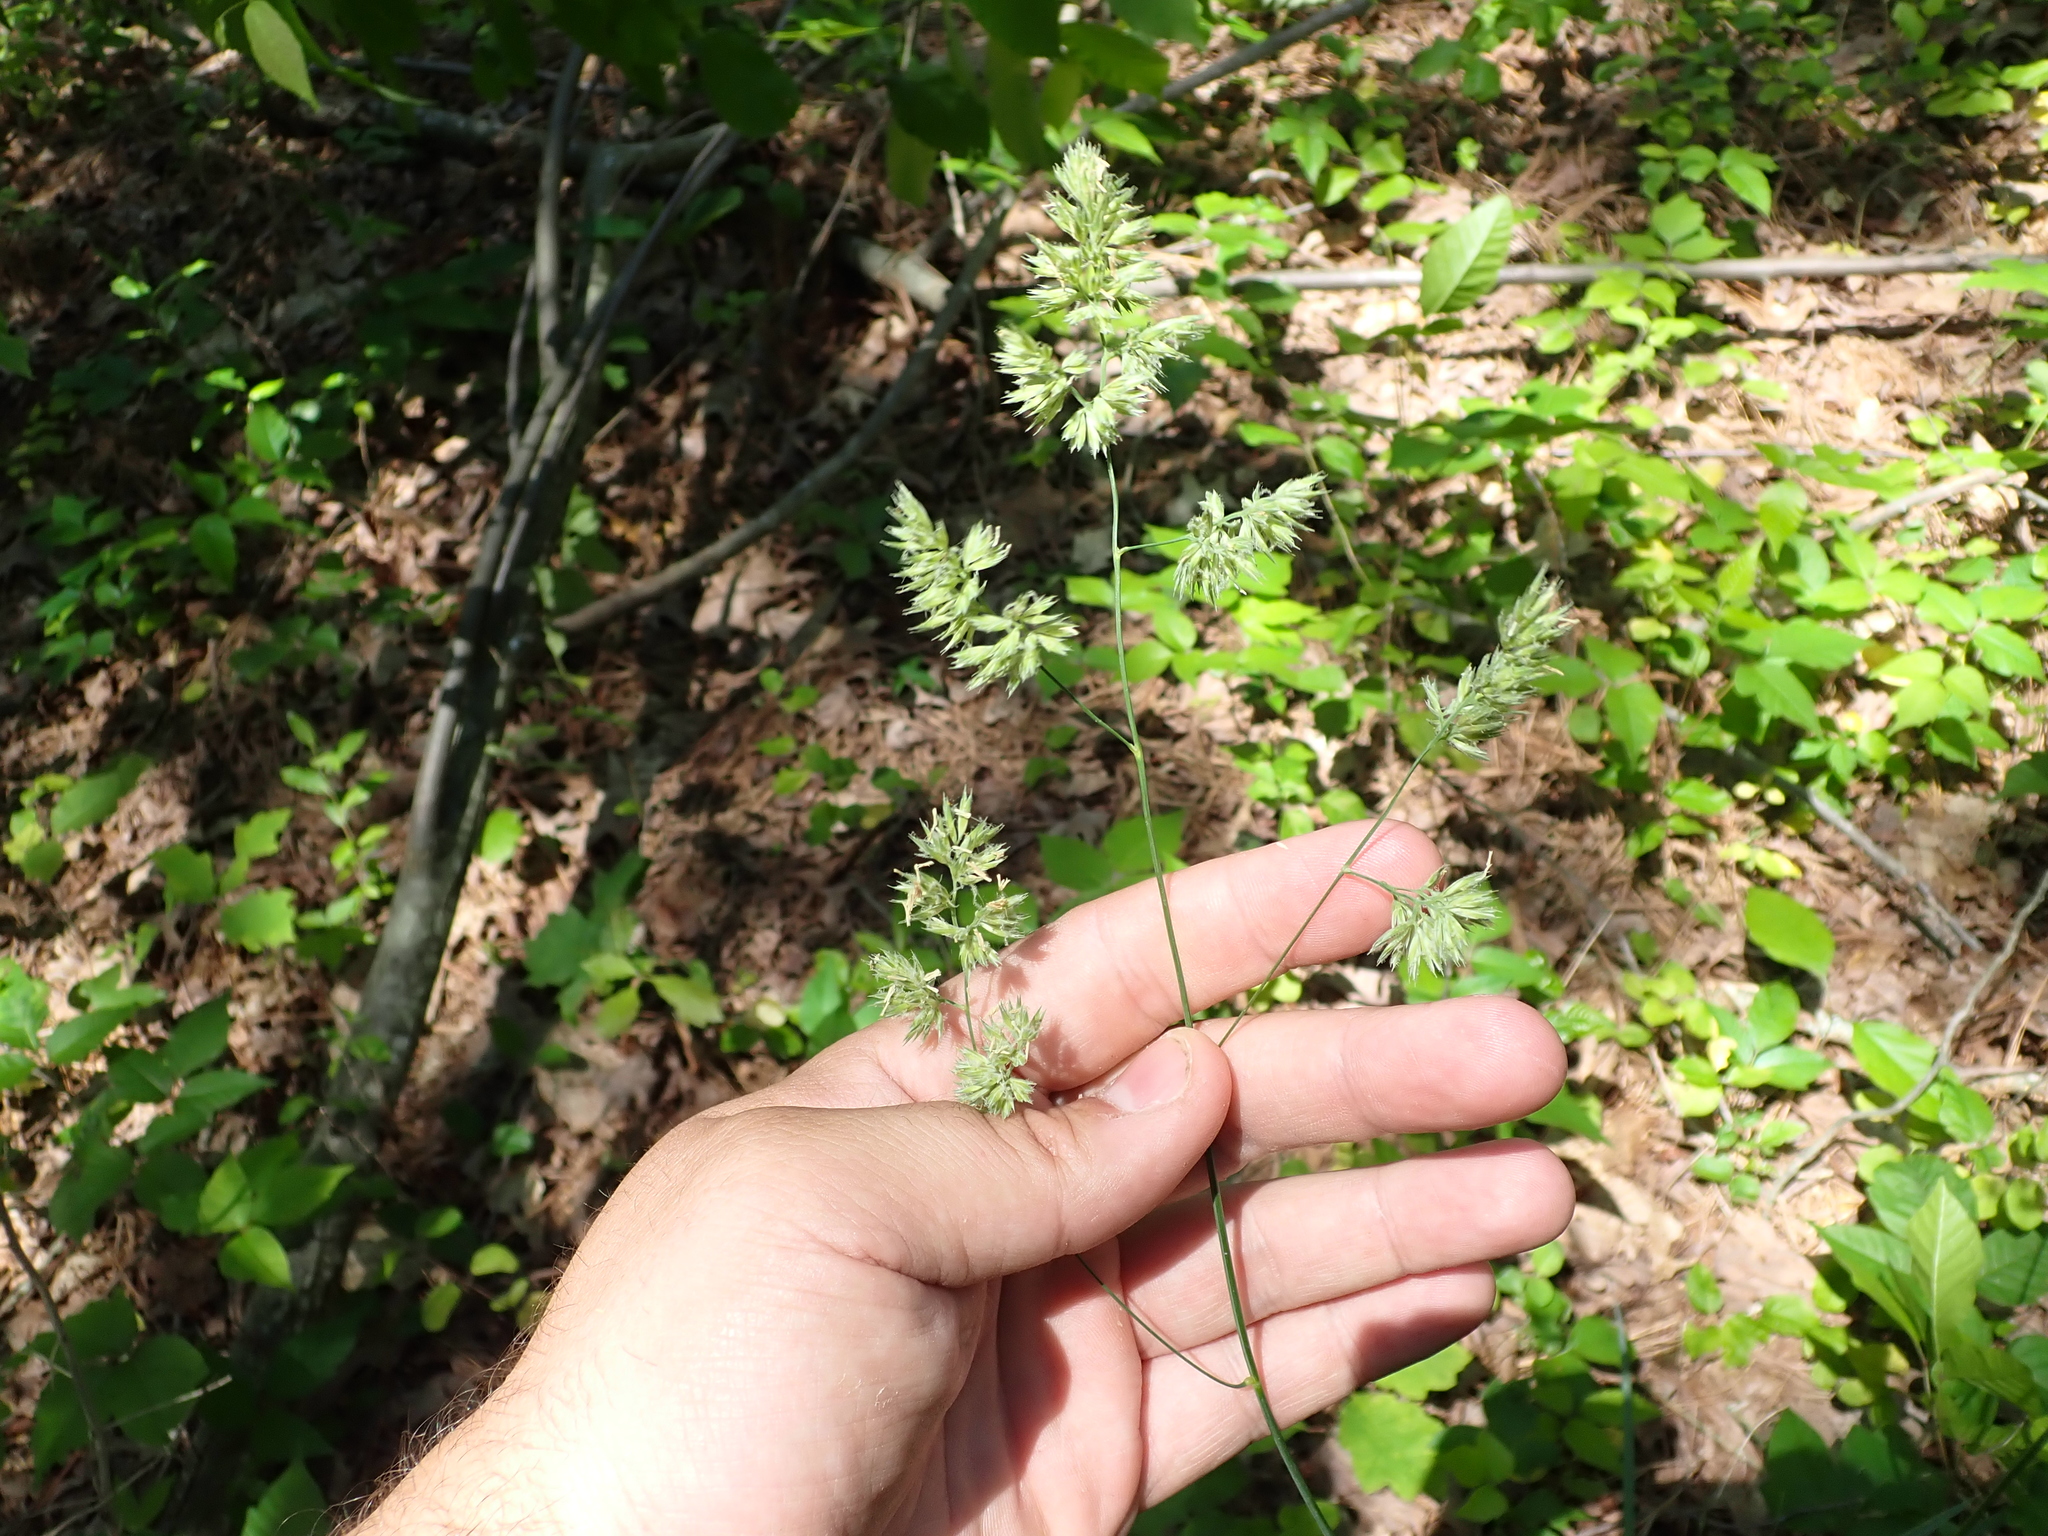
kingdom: Plantae
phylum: Tracheophyta
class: Liliopsida
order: Poales
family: Poaceae
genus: Dactylis
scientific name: Dactylis glomerata
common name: Orchardgrass
